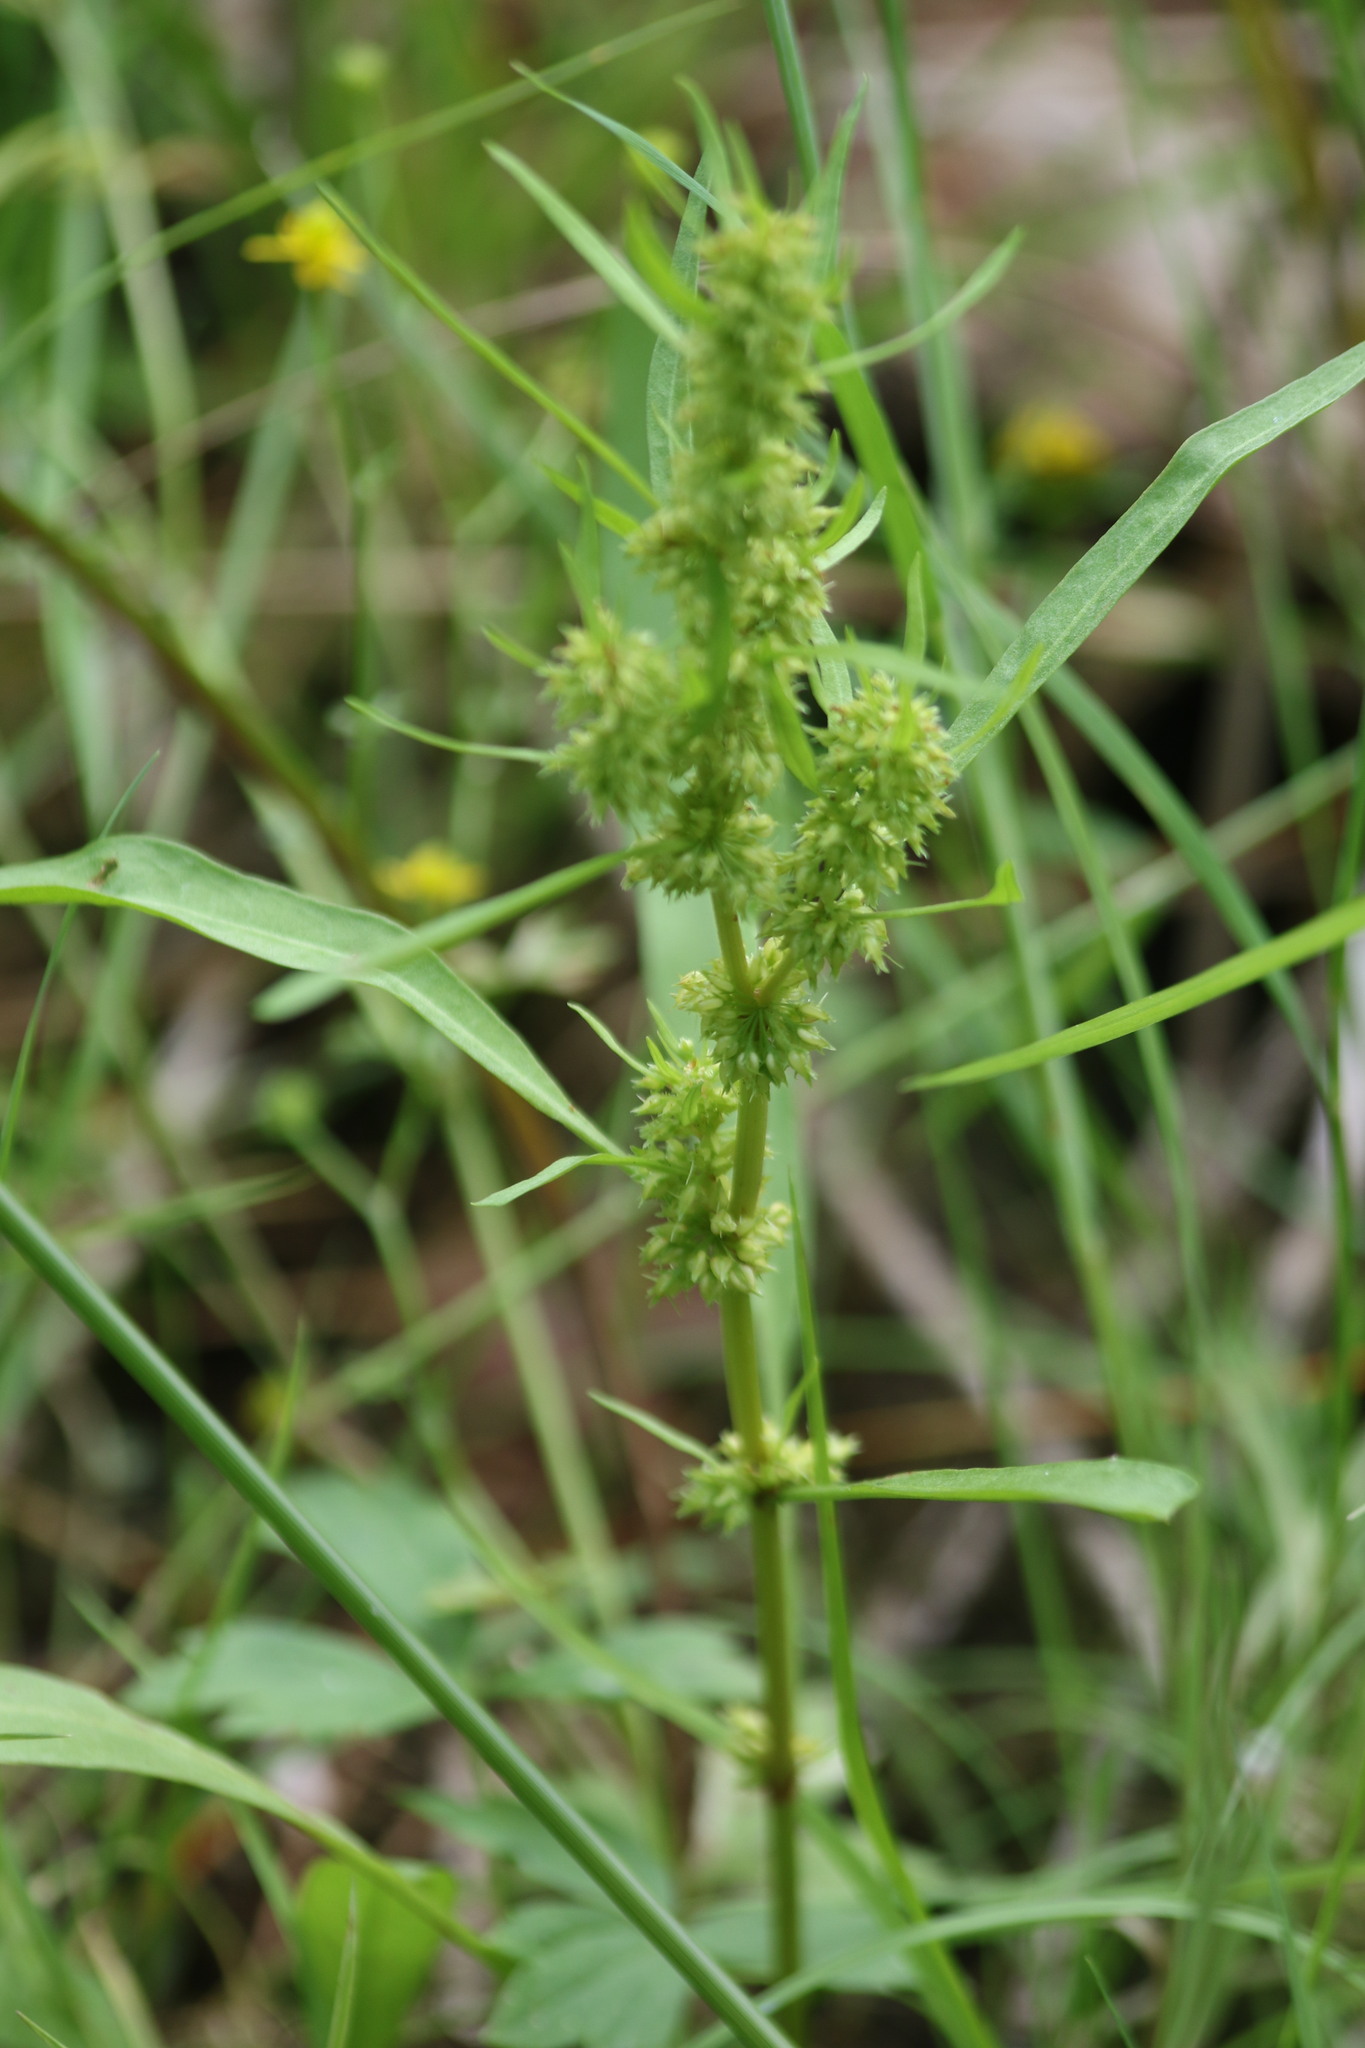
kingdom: Plantae
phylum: Tracheophyta
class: Magnoliopsida
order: Caryophyllales
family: Polygonaceae
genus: Rumex
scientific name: Rumex maritimus
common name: Golden dock
